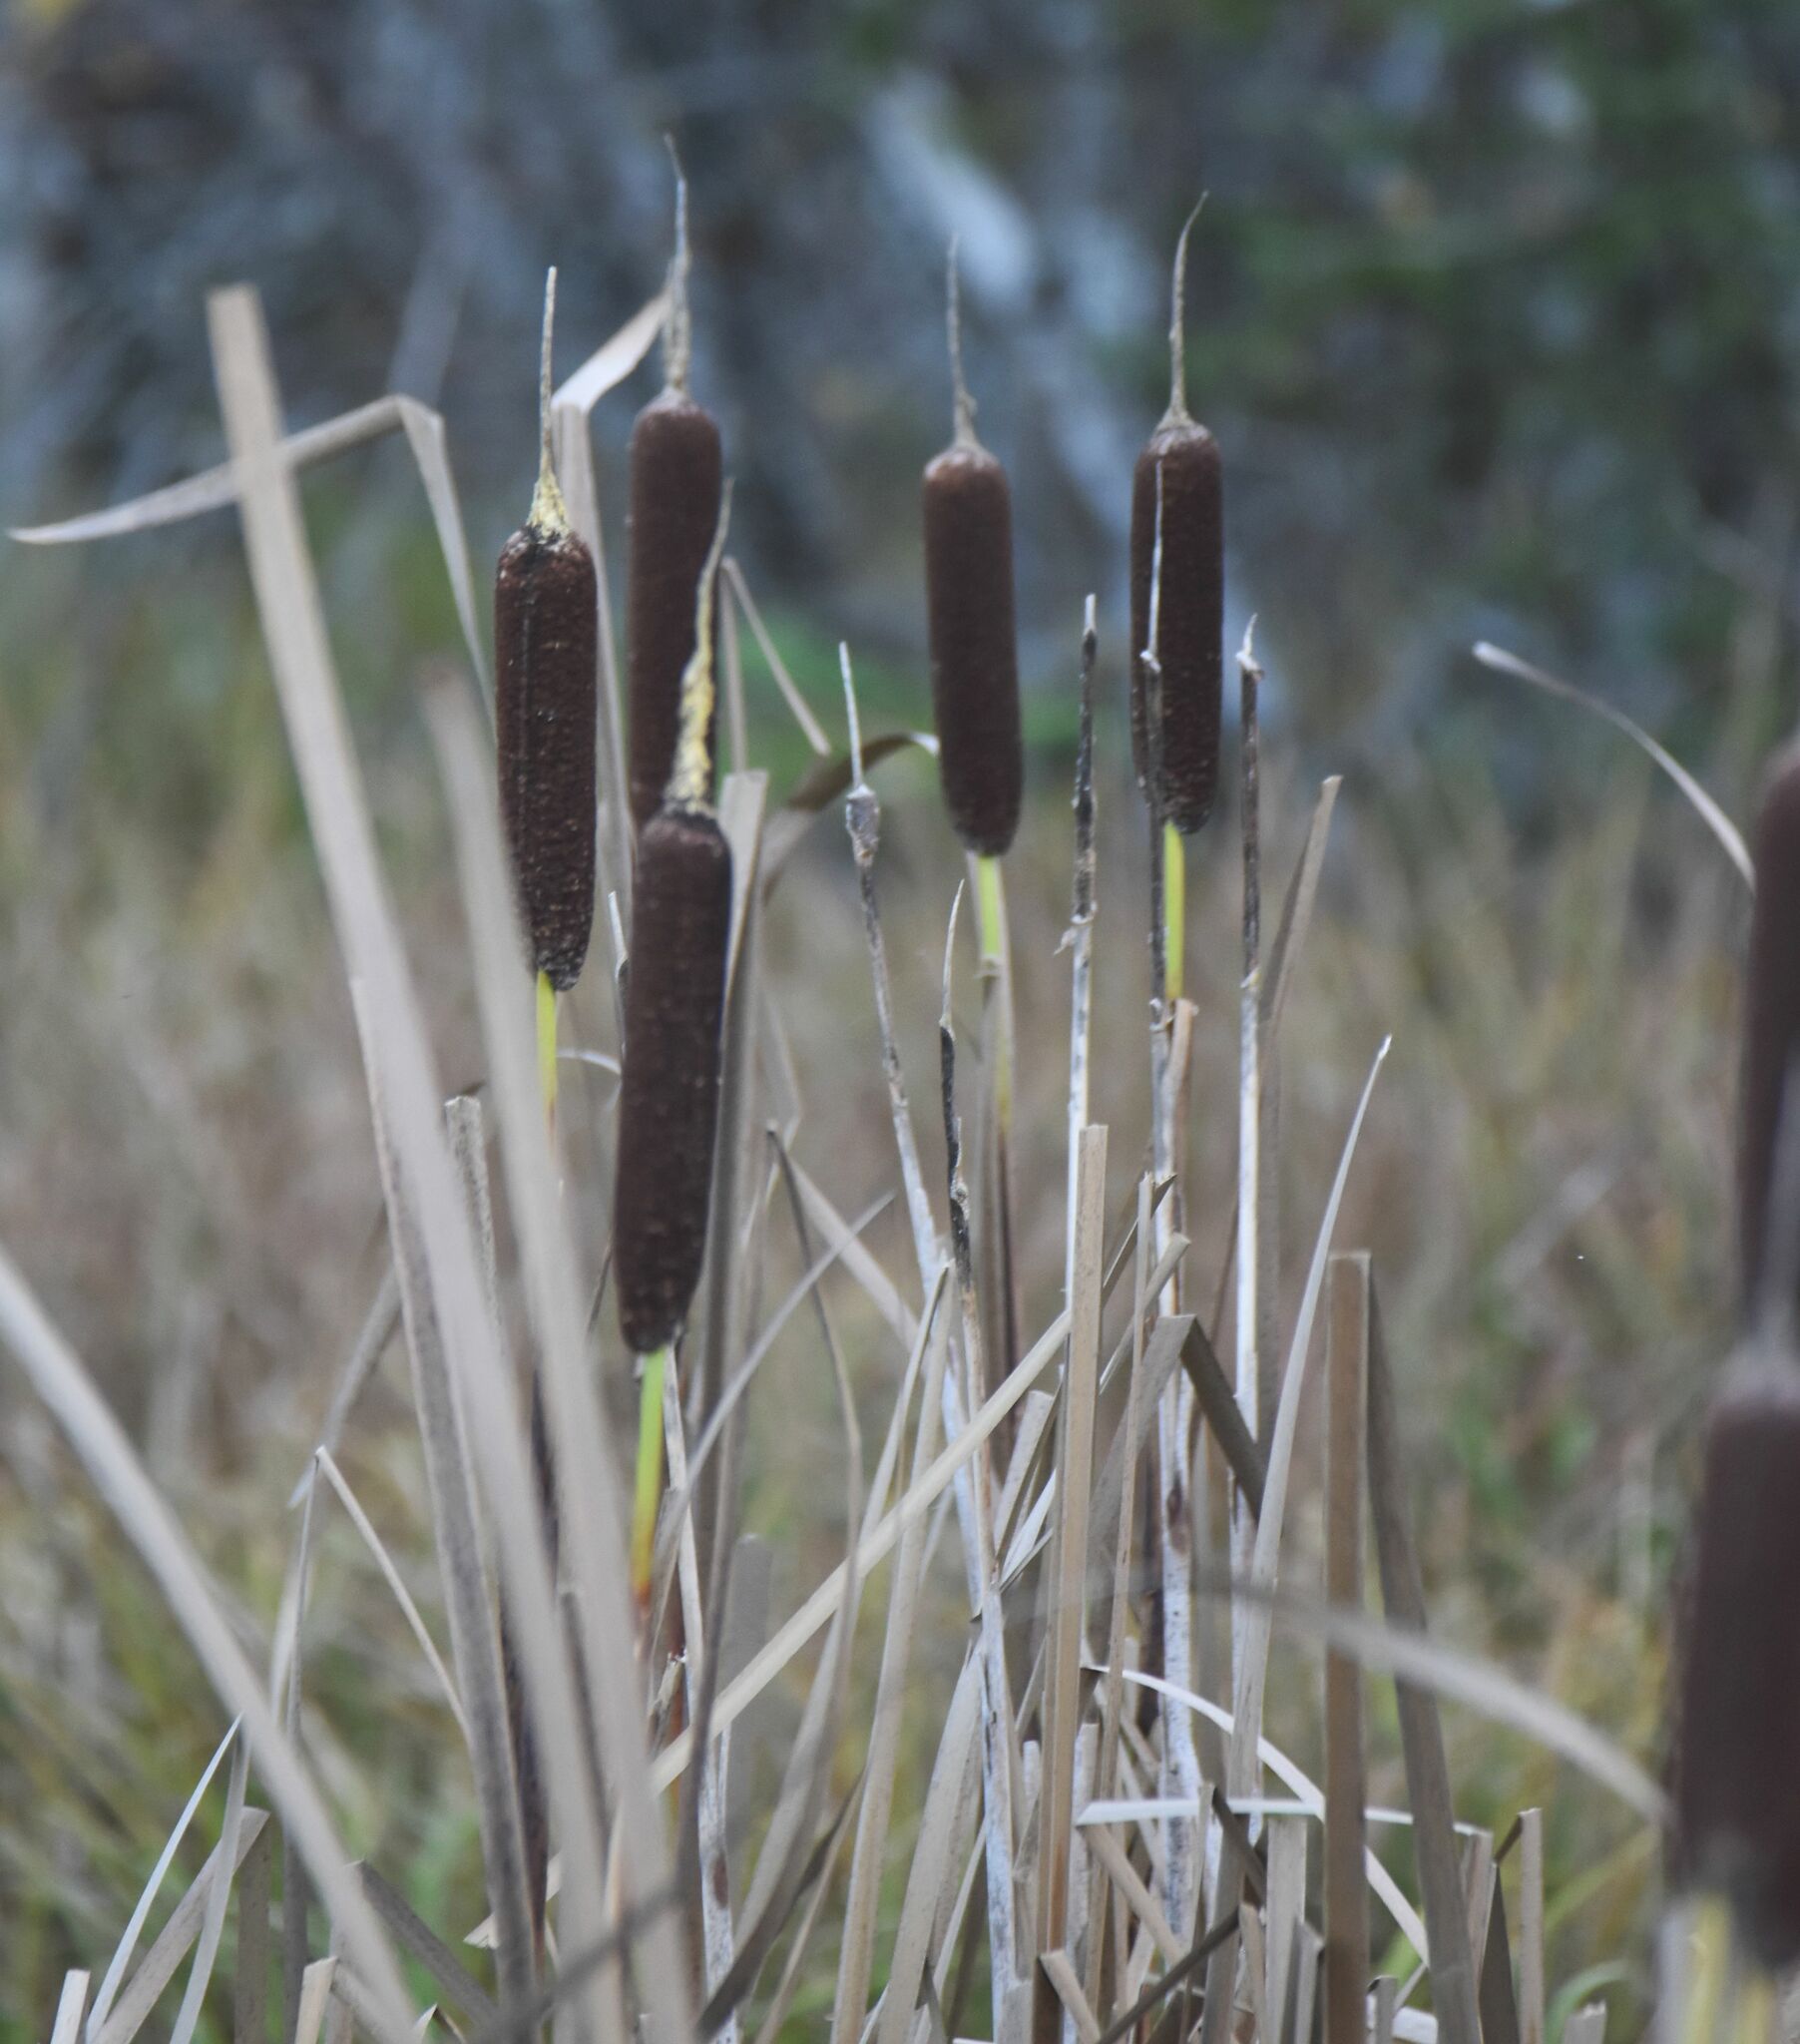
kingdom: Plantae
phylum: Tracheophyta
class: Liliopsida
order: Poales
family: Typhaceae
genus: Typha
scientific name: Typha latifolia
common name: Broadleaf cattail
